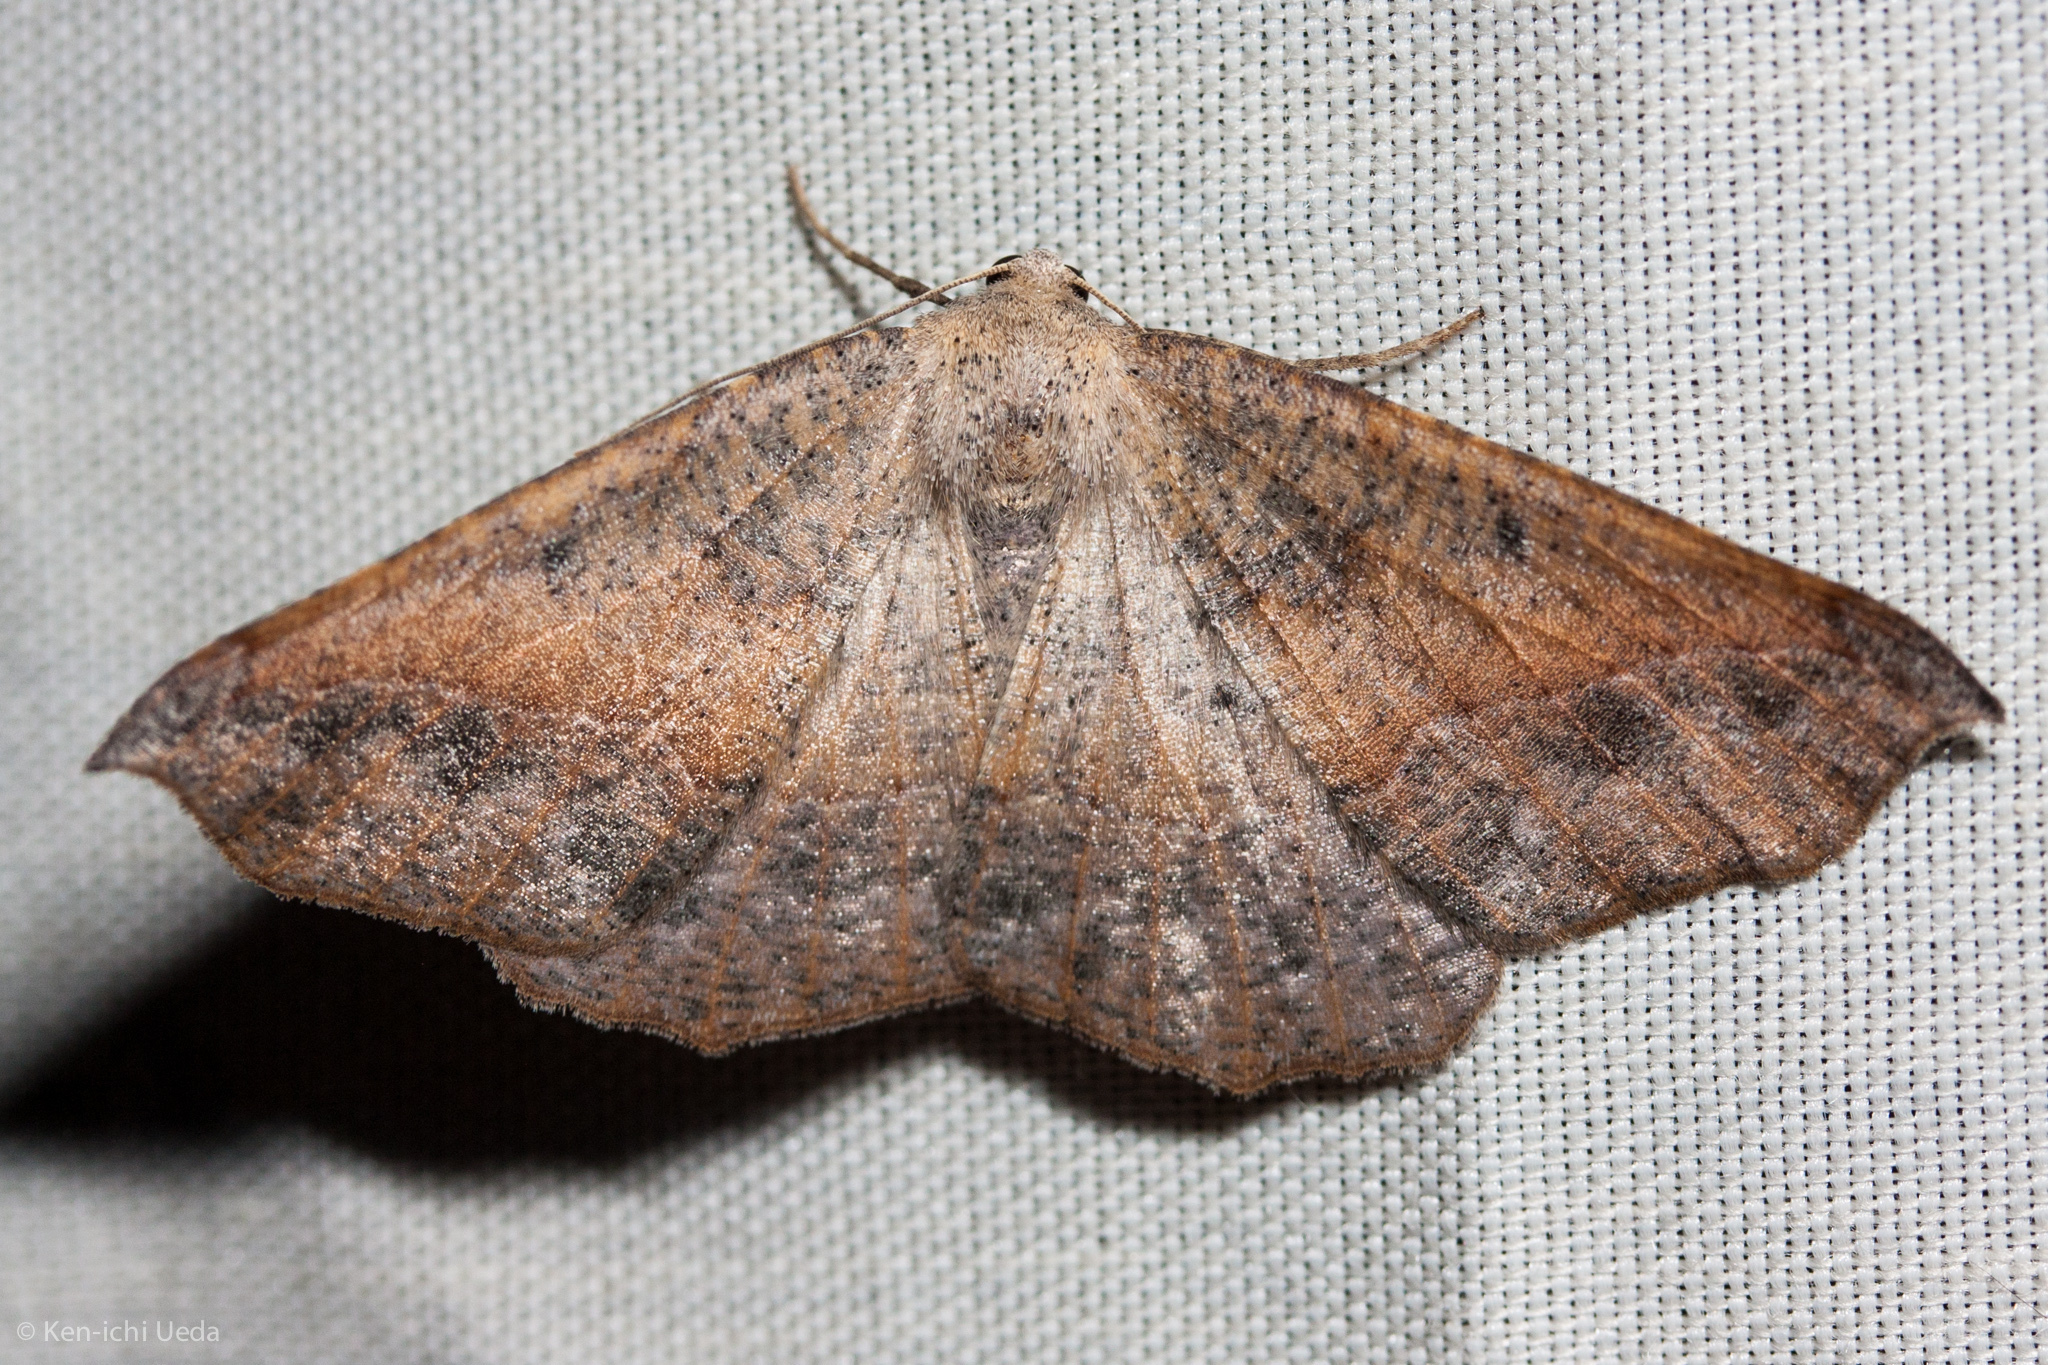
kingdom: Animalia
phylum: Arthropoda
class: Insecta
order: Lepidoptera
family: Geometridae
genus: Prochoerodes
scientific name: Prochoerodes forficaria
